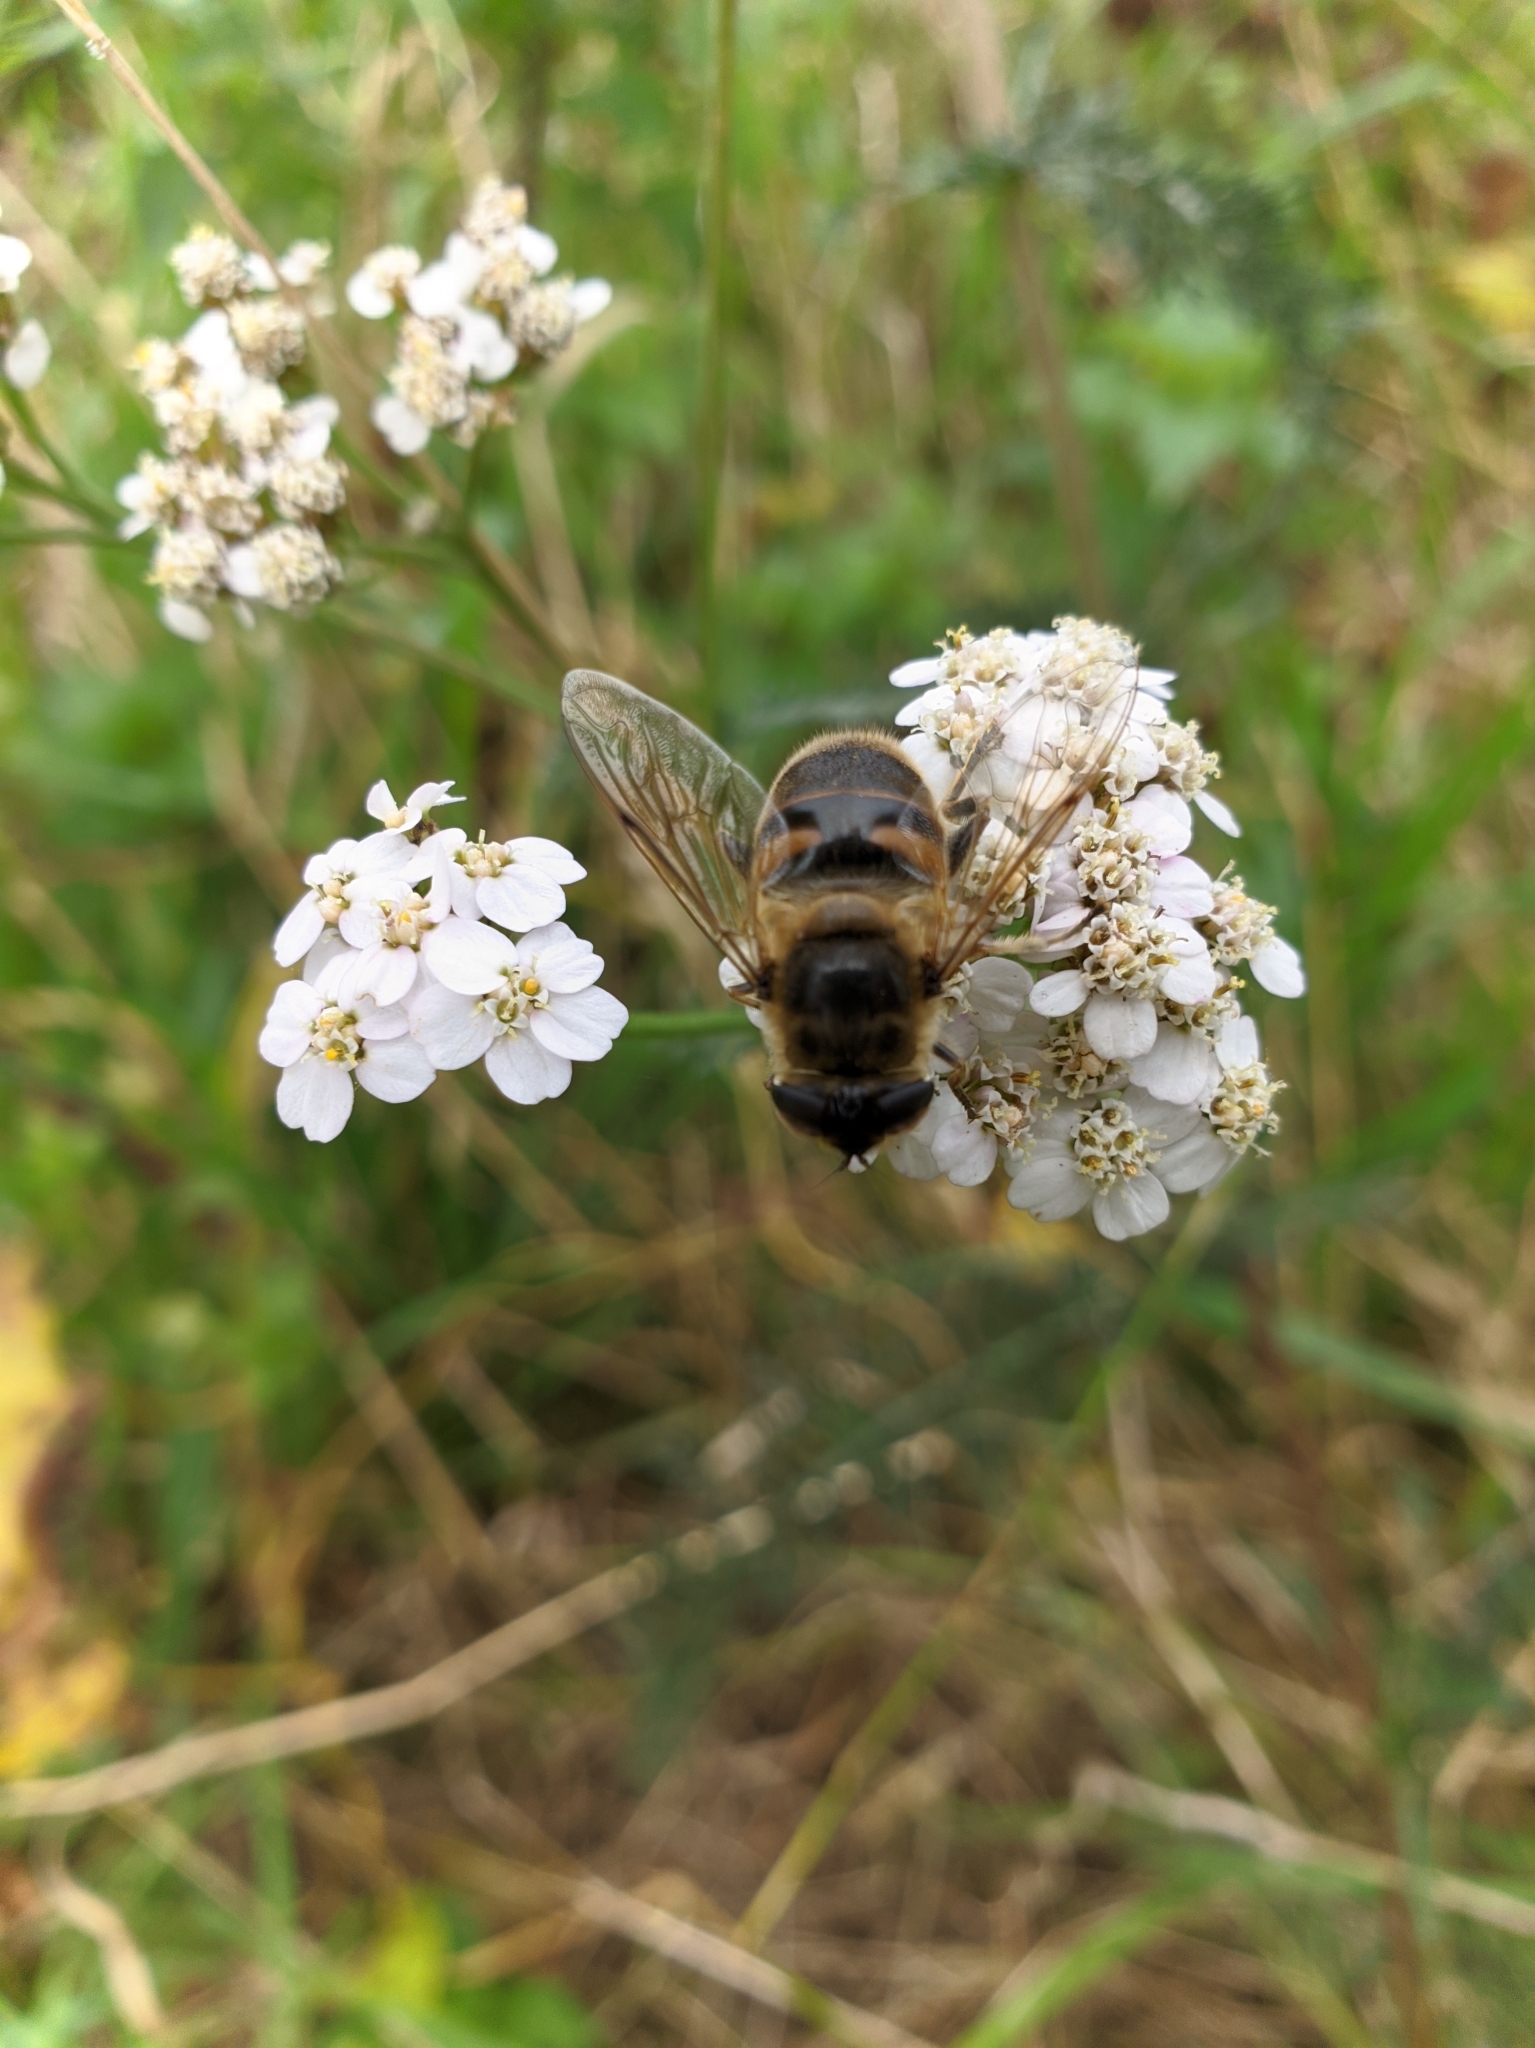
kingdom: Animalia
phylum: Arthropoda
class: Insecta
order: Diptera
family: Syrphidae
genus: Eristalis
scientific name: Eristalis tenax
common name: Drone fly
